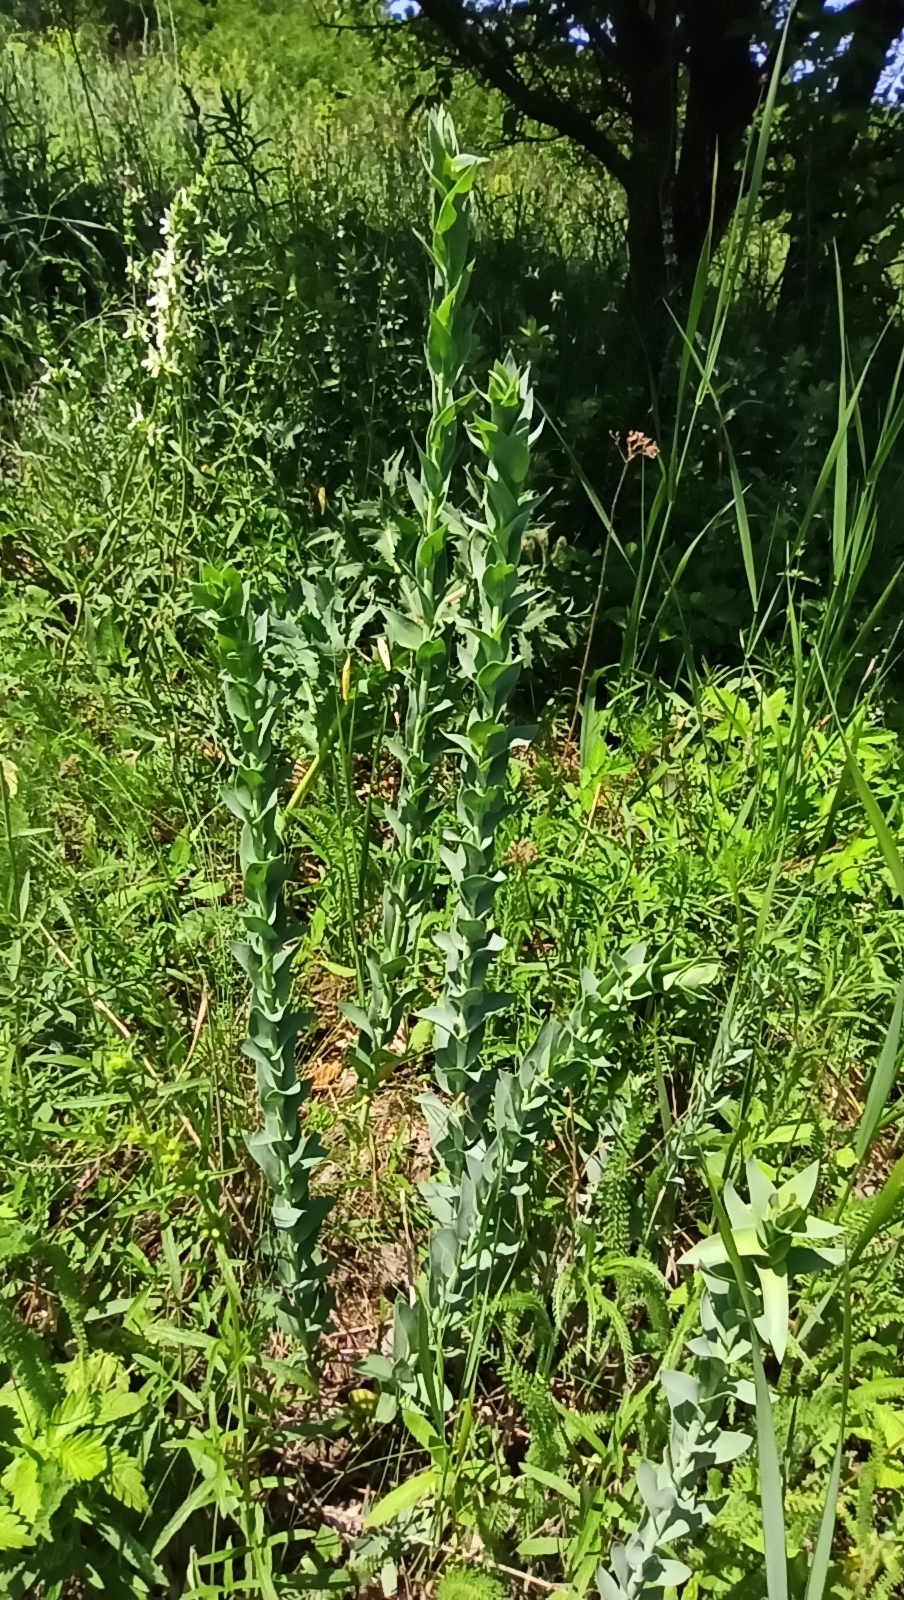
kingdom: Plantae
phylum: Tracheophyta
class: Magnoliopsida
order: Apiales
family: Apiaceae
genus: Bupleurum
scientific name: Bupleurum rotundifolium
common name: Thorow-wax
